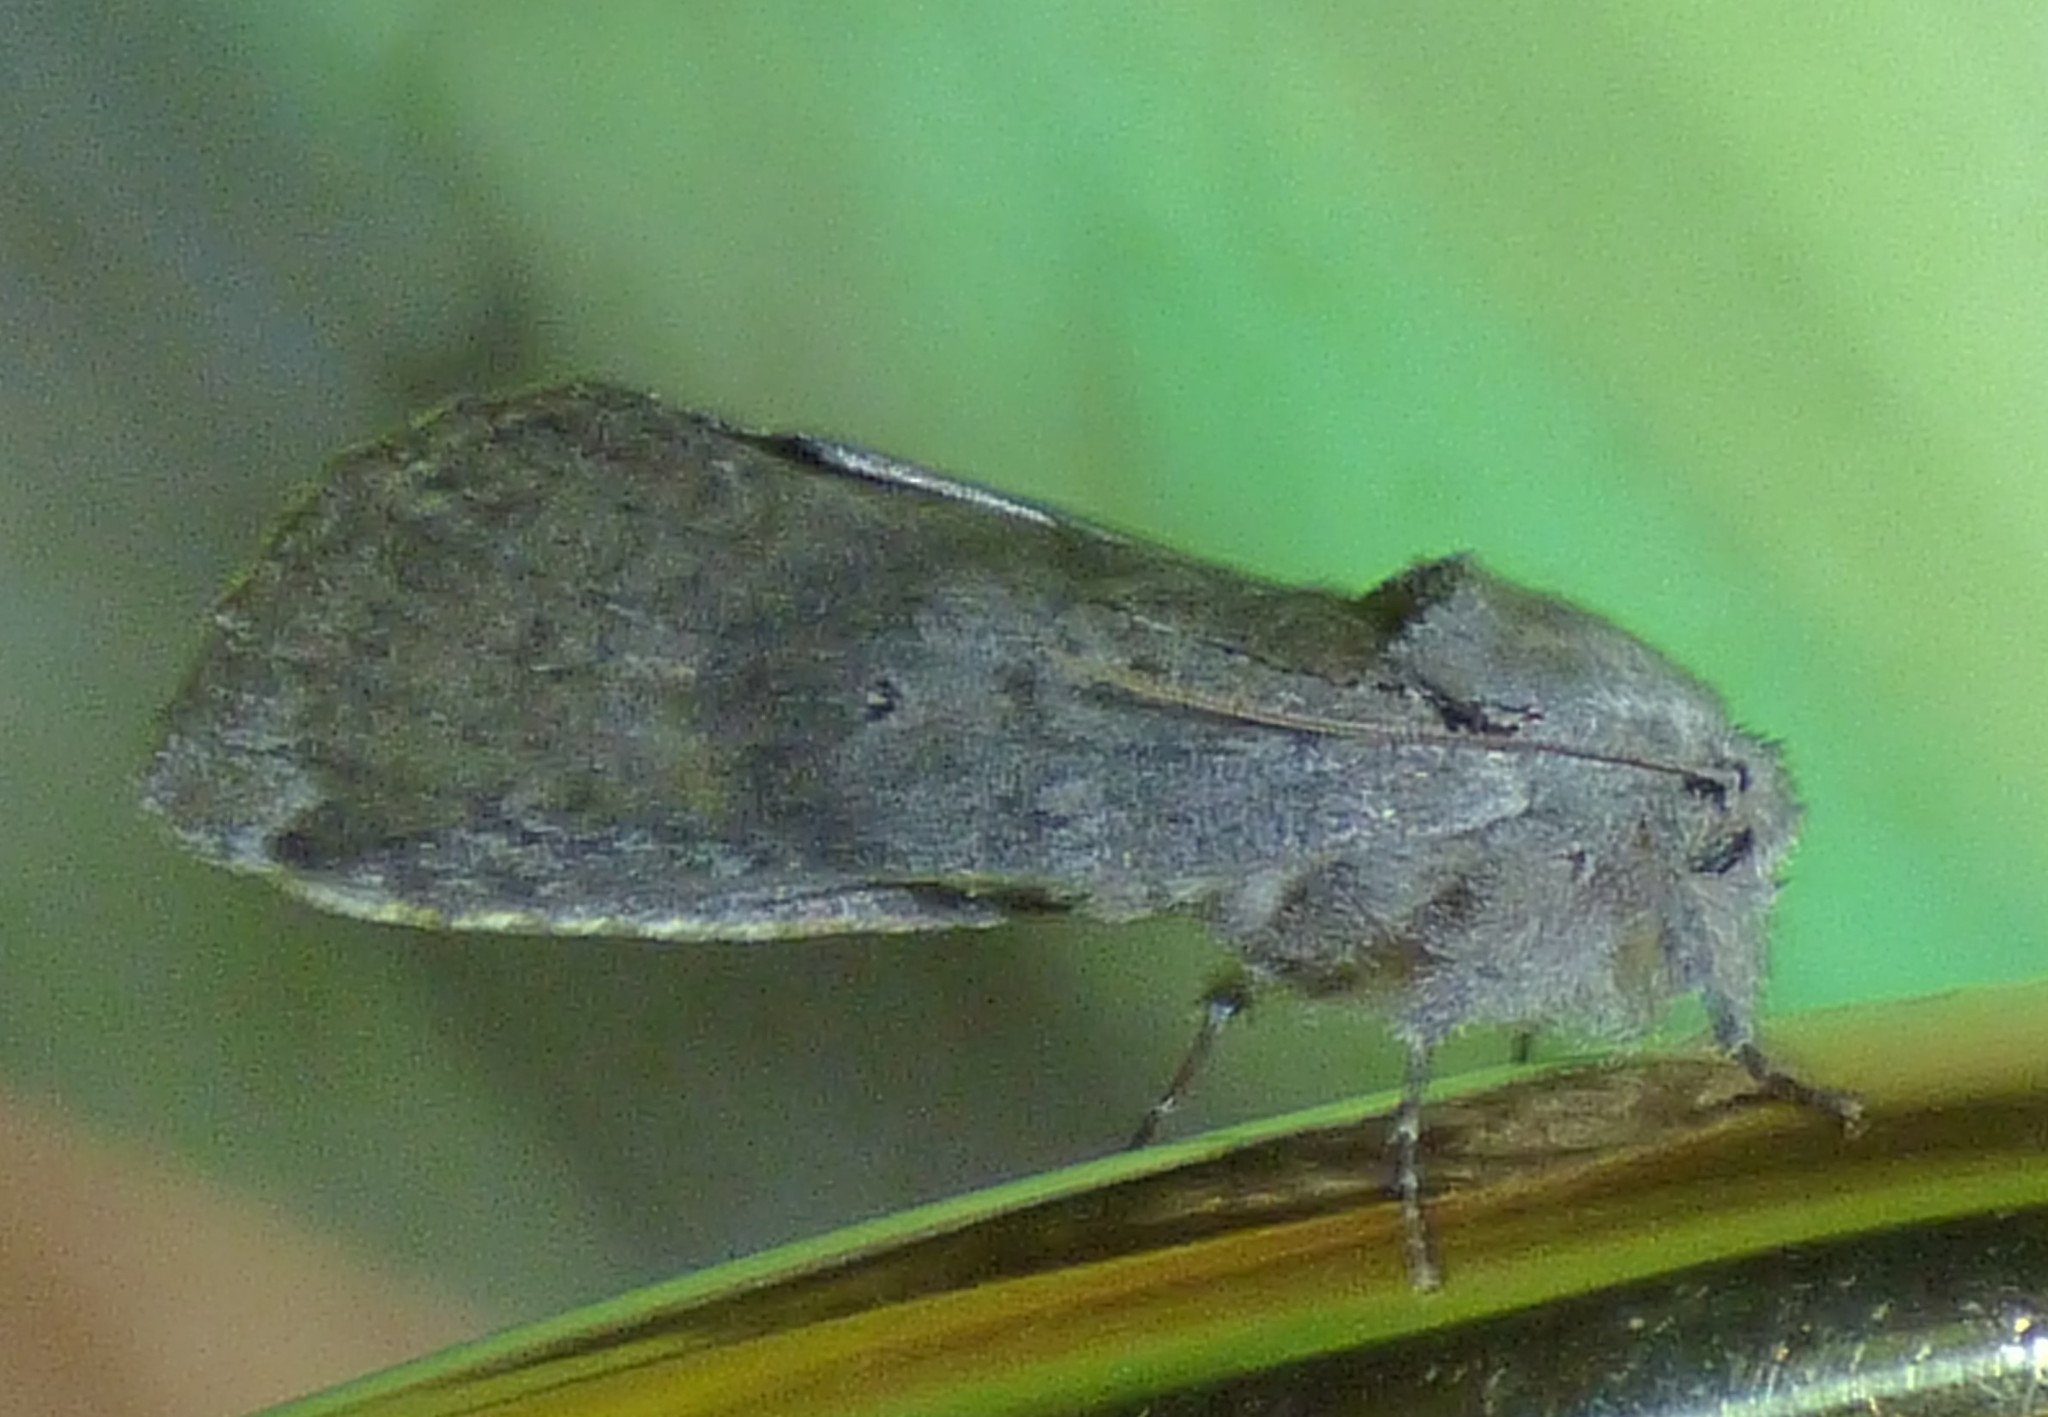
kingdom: Animalia
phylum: Arthropoda
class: Insecta
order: Lepidoptera
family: Notodontidae
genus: Schizura
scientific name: Schizura
